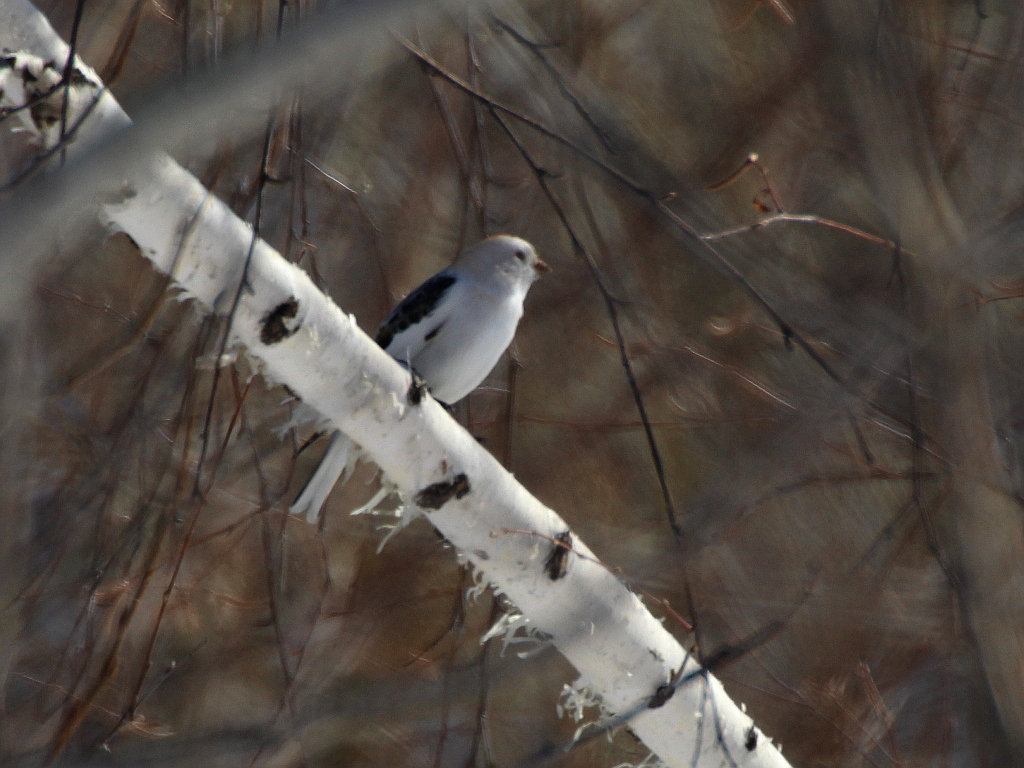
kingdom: Animalia
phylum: Chordata
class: Aves
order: Passeriformes
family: Calcariidae
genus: Plectrophenax
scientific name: Plectrophenax nivalis
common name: Snow bunting
